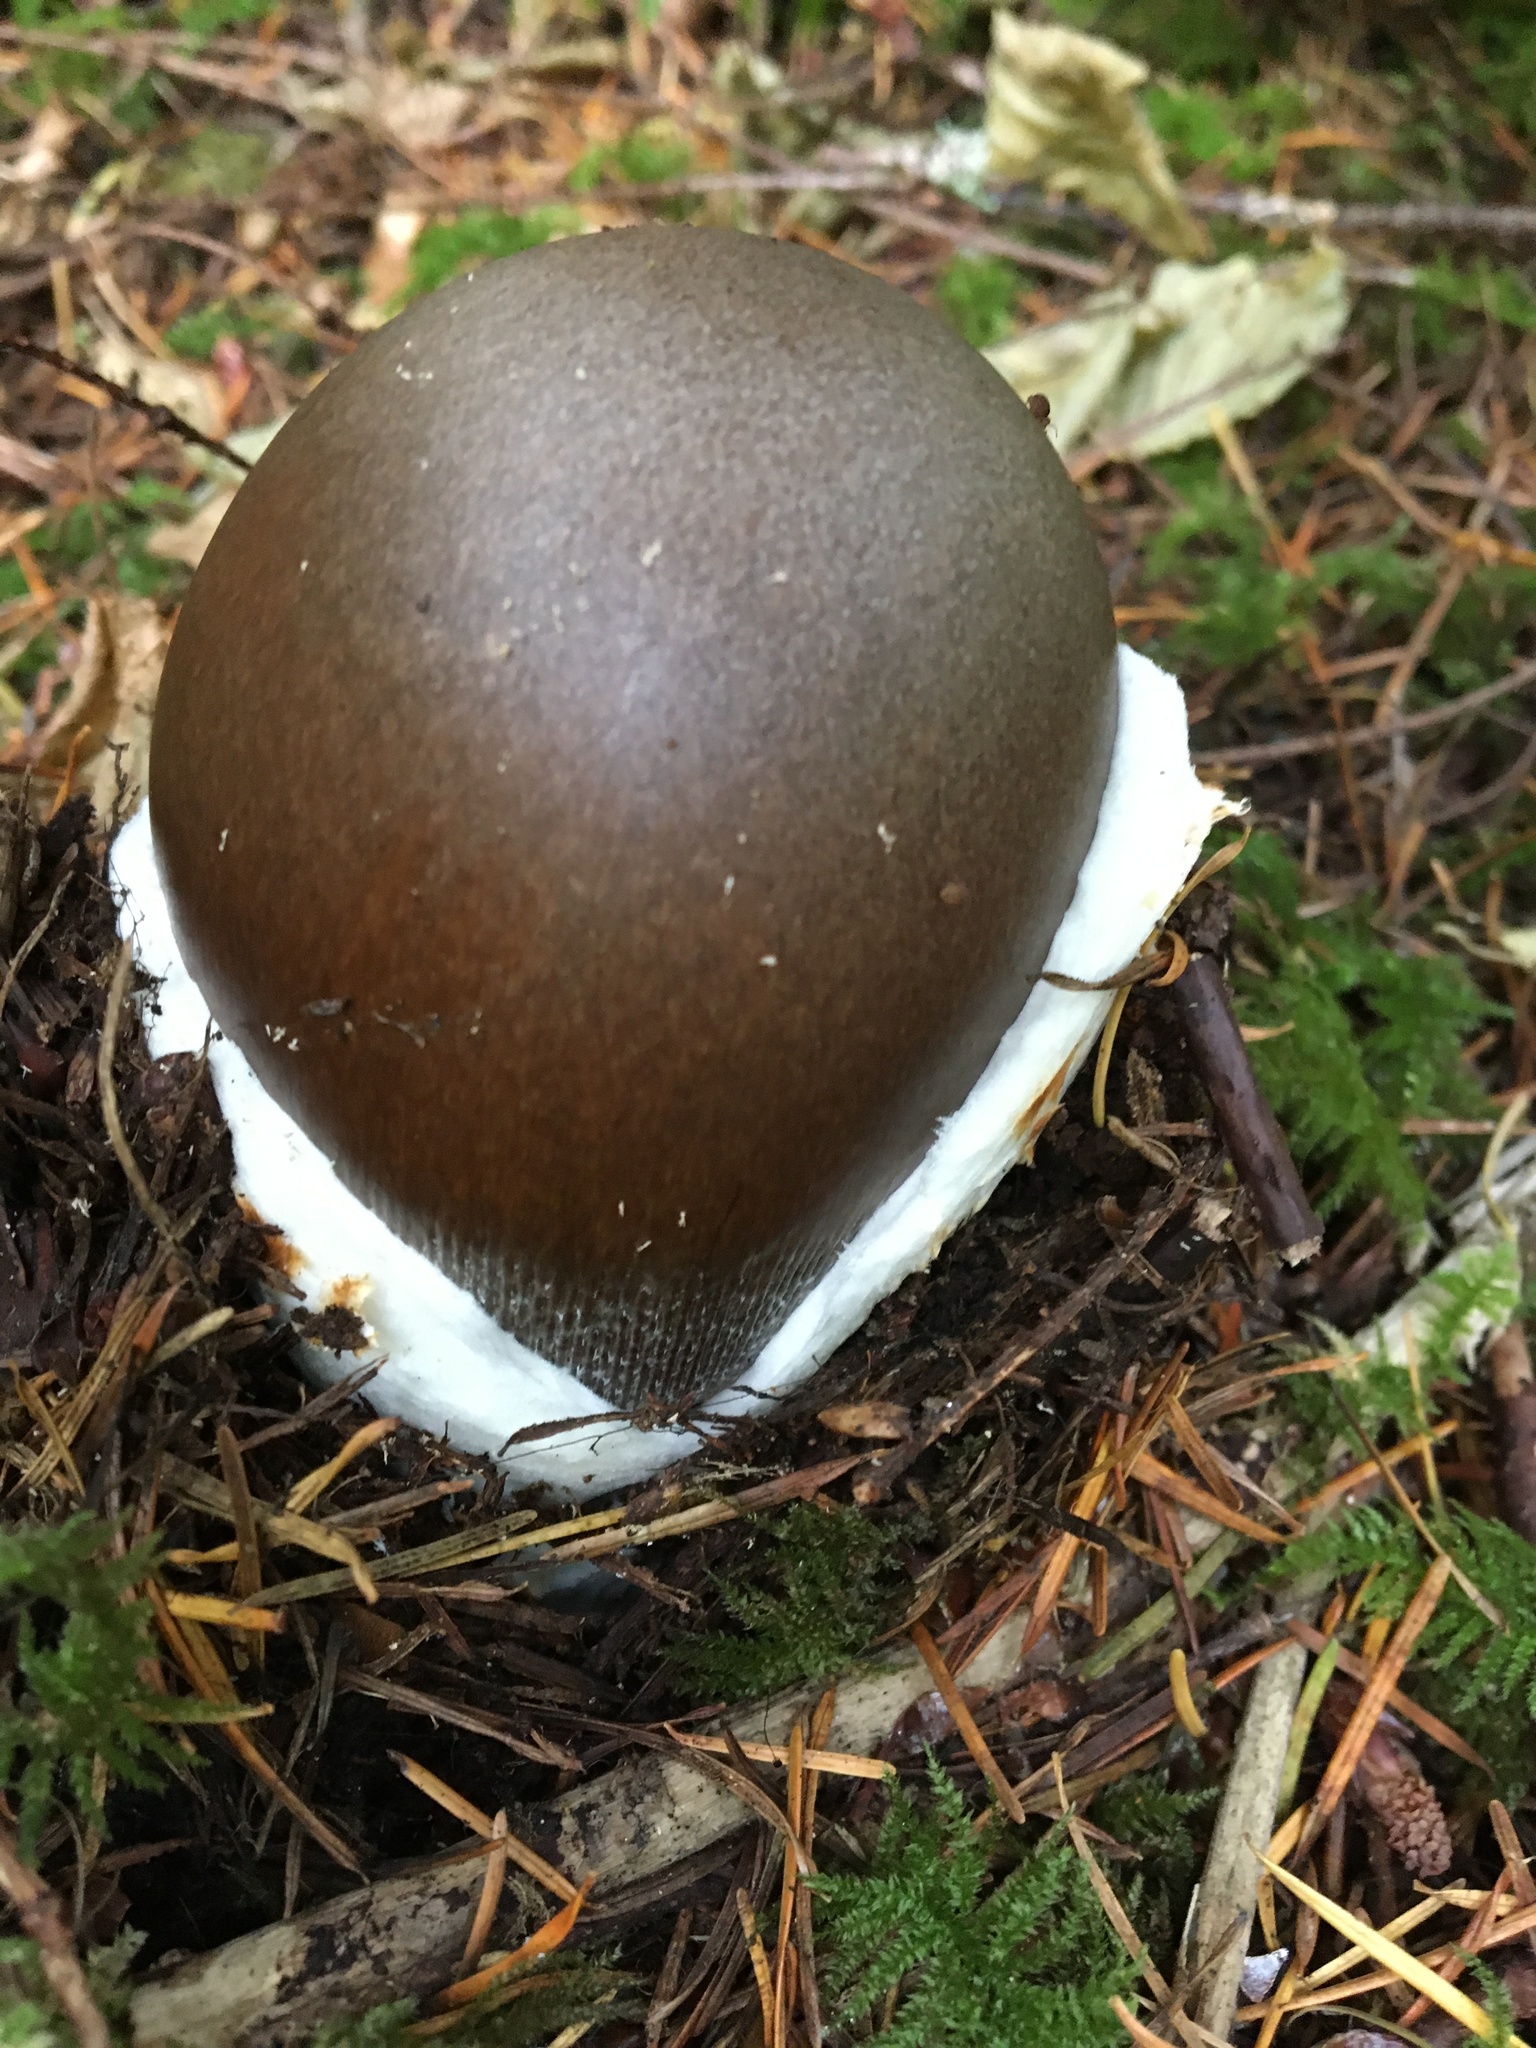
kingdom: Fungi
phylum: Basidiomycota
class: Agaricomycetes
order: Agaricales
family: Amanitaceae
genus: Amanita
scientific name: Amanita pachycolea
